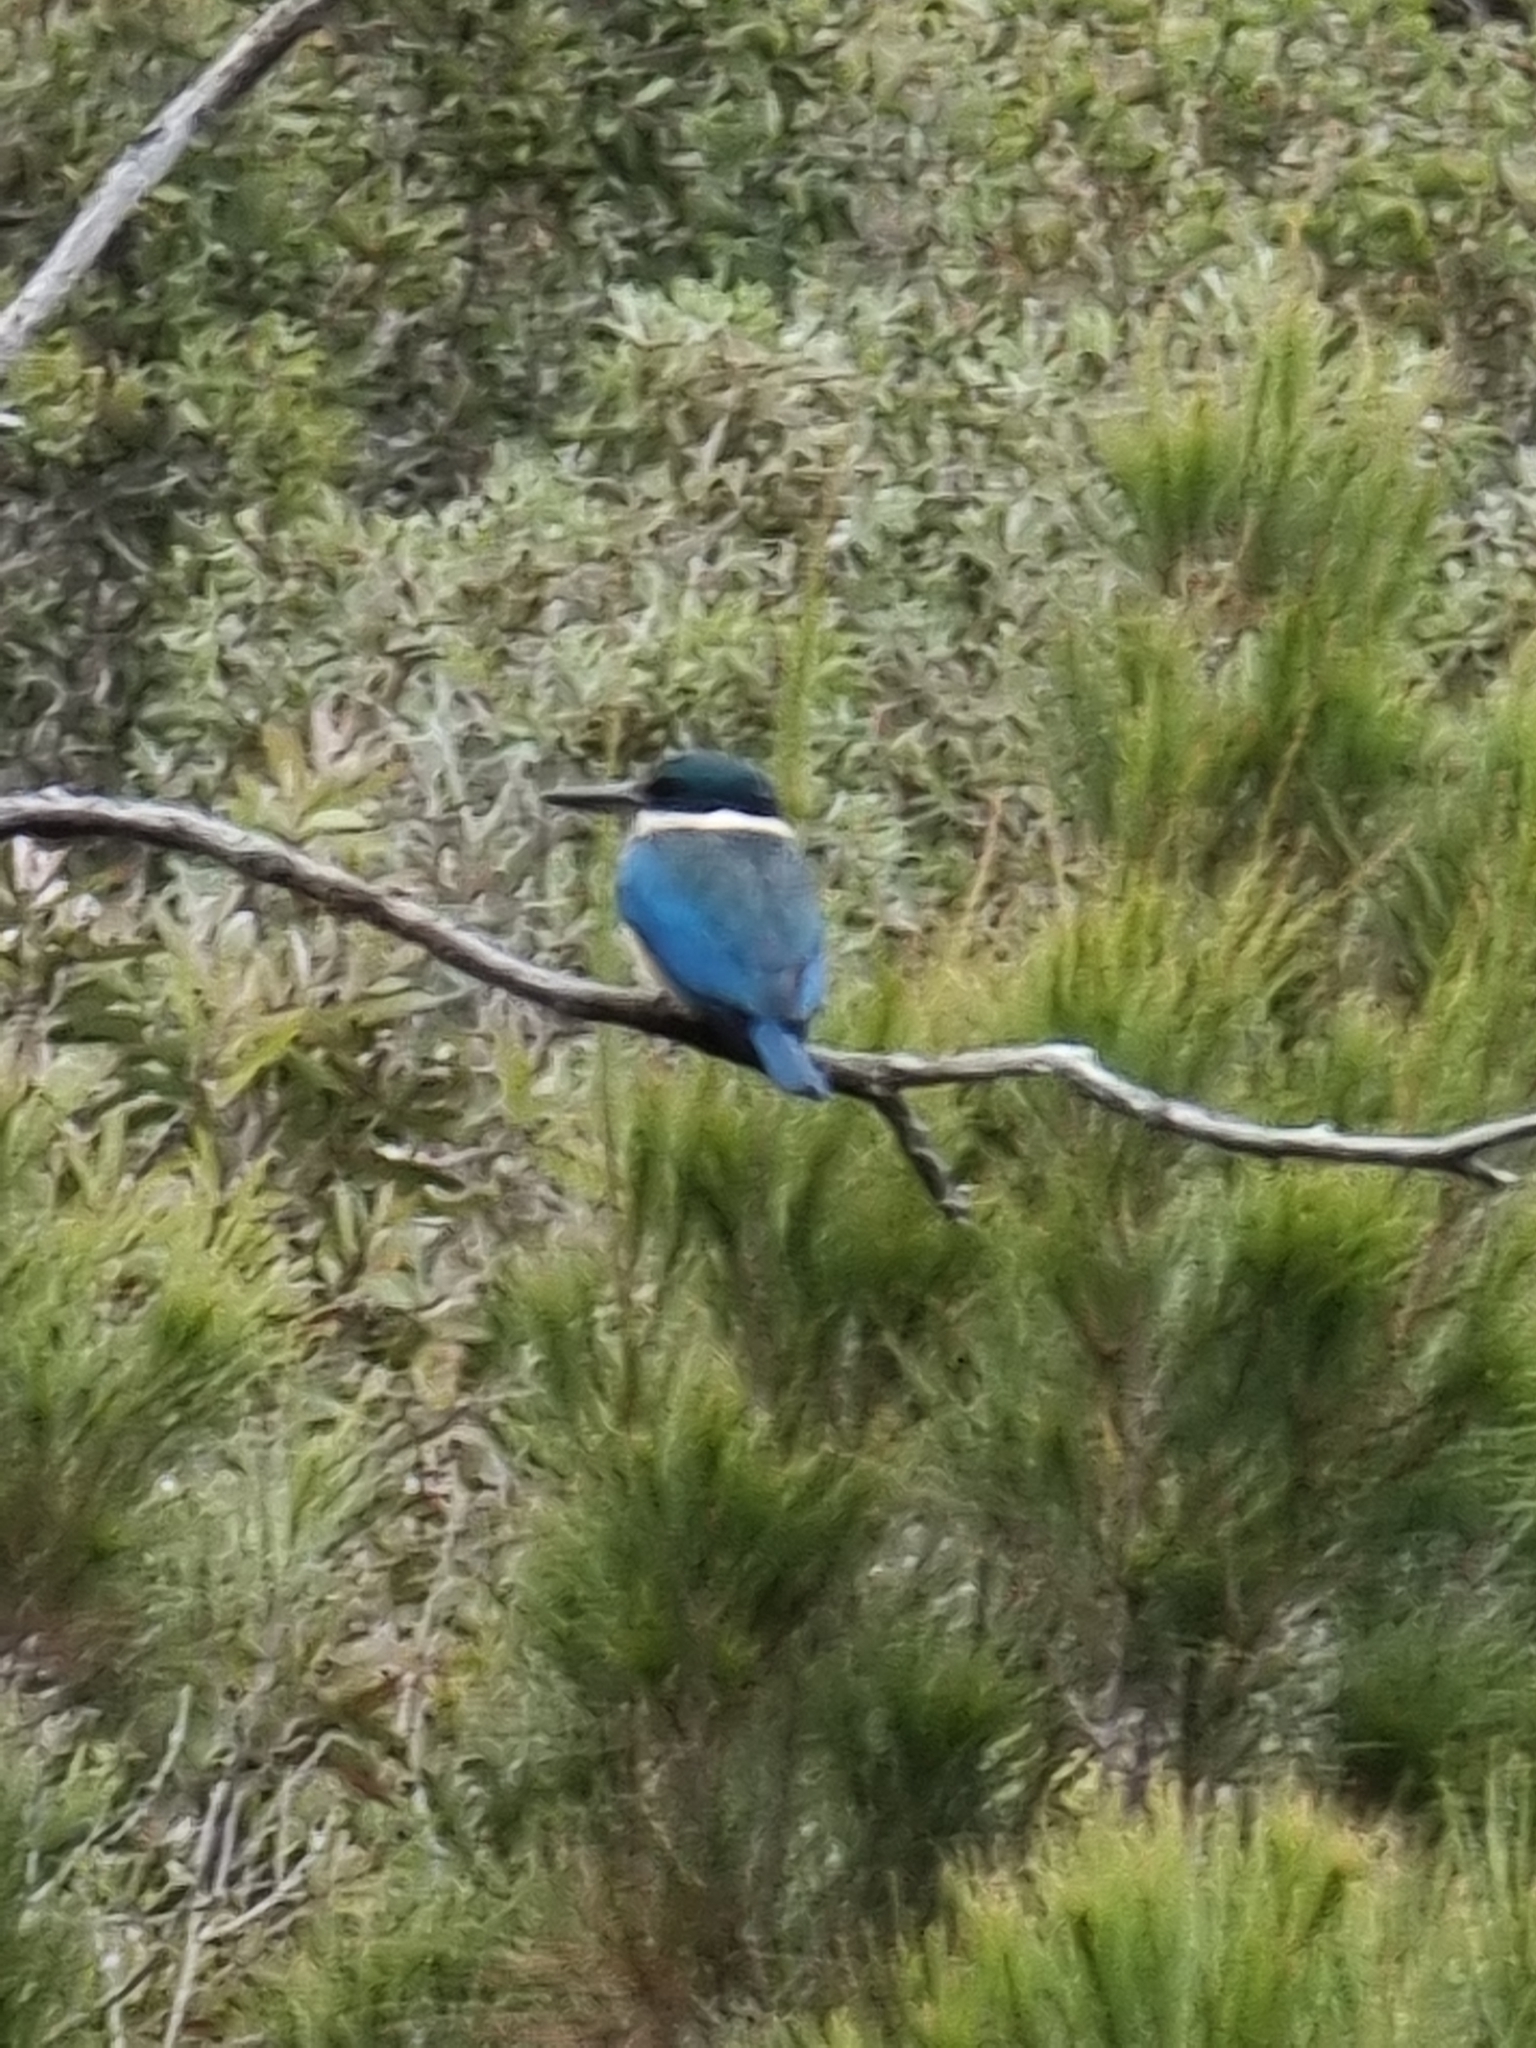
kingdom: Animalia
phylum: Chordata
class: Aves
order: Coraciiformes
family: Alcedinidae
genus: Todiramphus
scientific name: Todiramphus sanctus
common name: Sacred kingfisher
